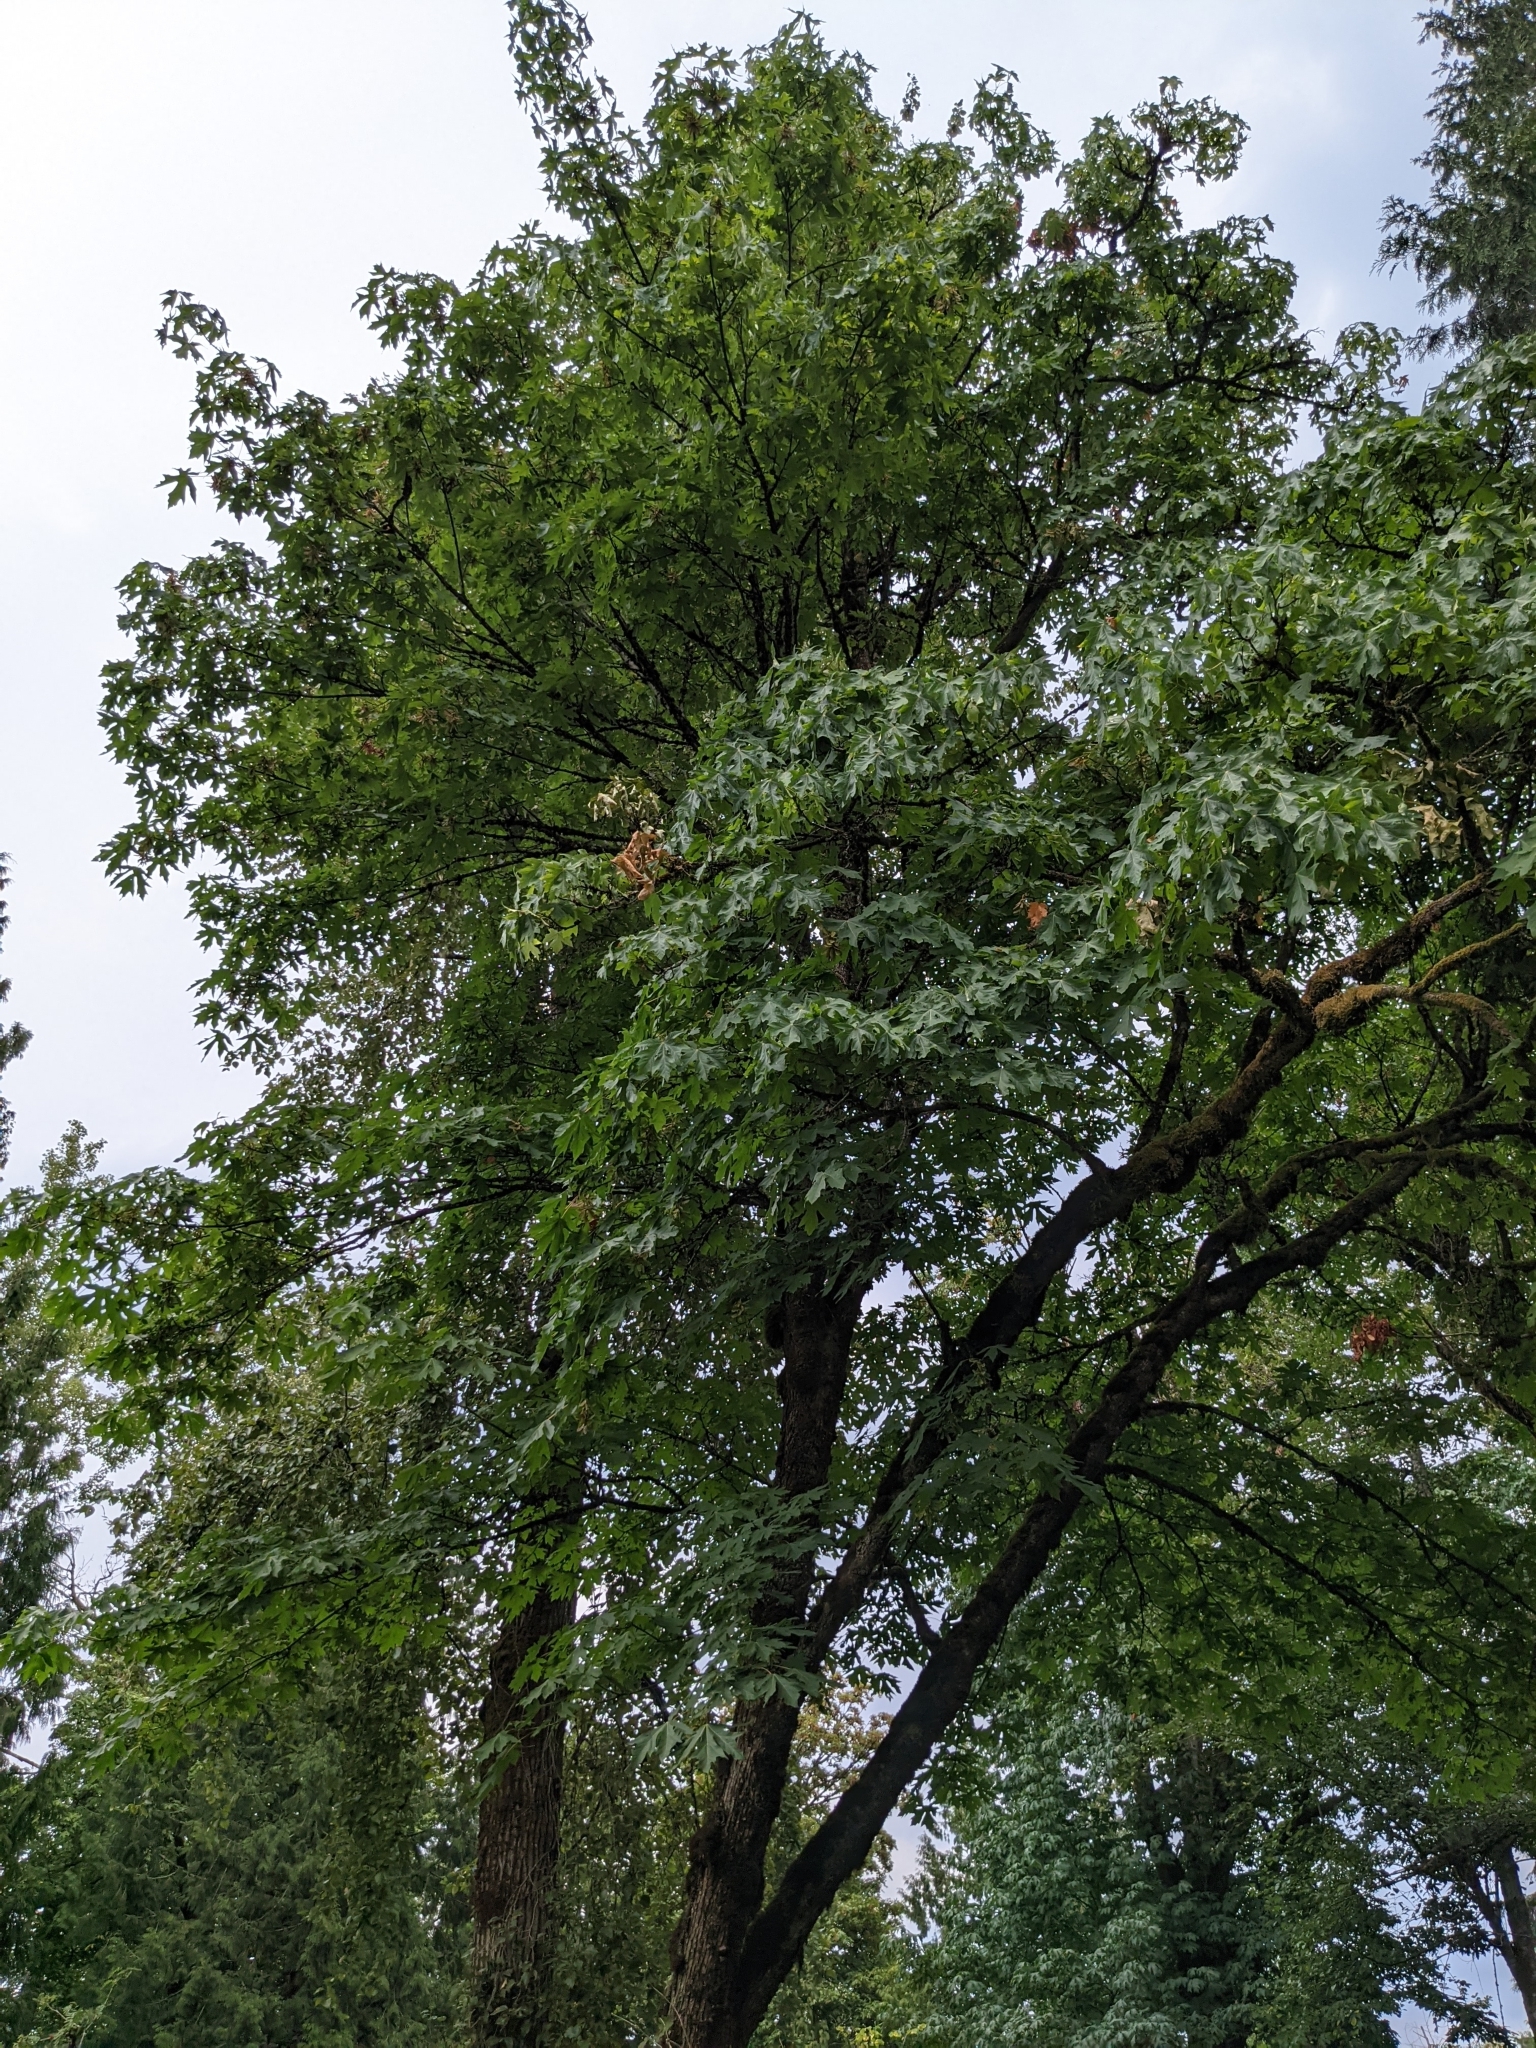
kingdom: Plantae
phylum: Tracheophyta
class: Magnoliopsida
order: Sapindales
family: Sapindaceae
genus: Acer
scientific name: Acer macrophyllum
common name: Oregon maple
